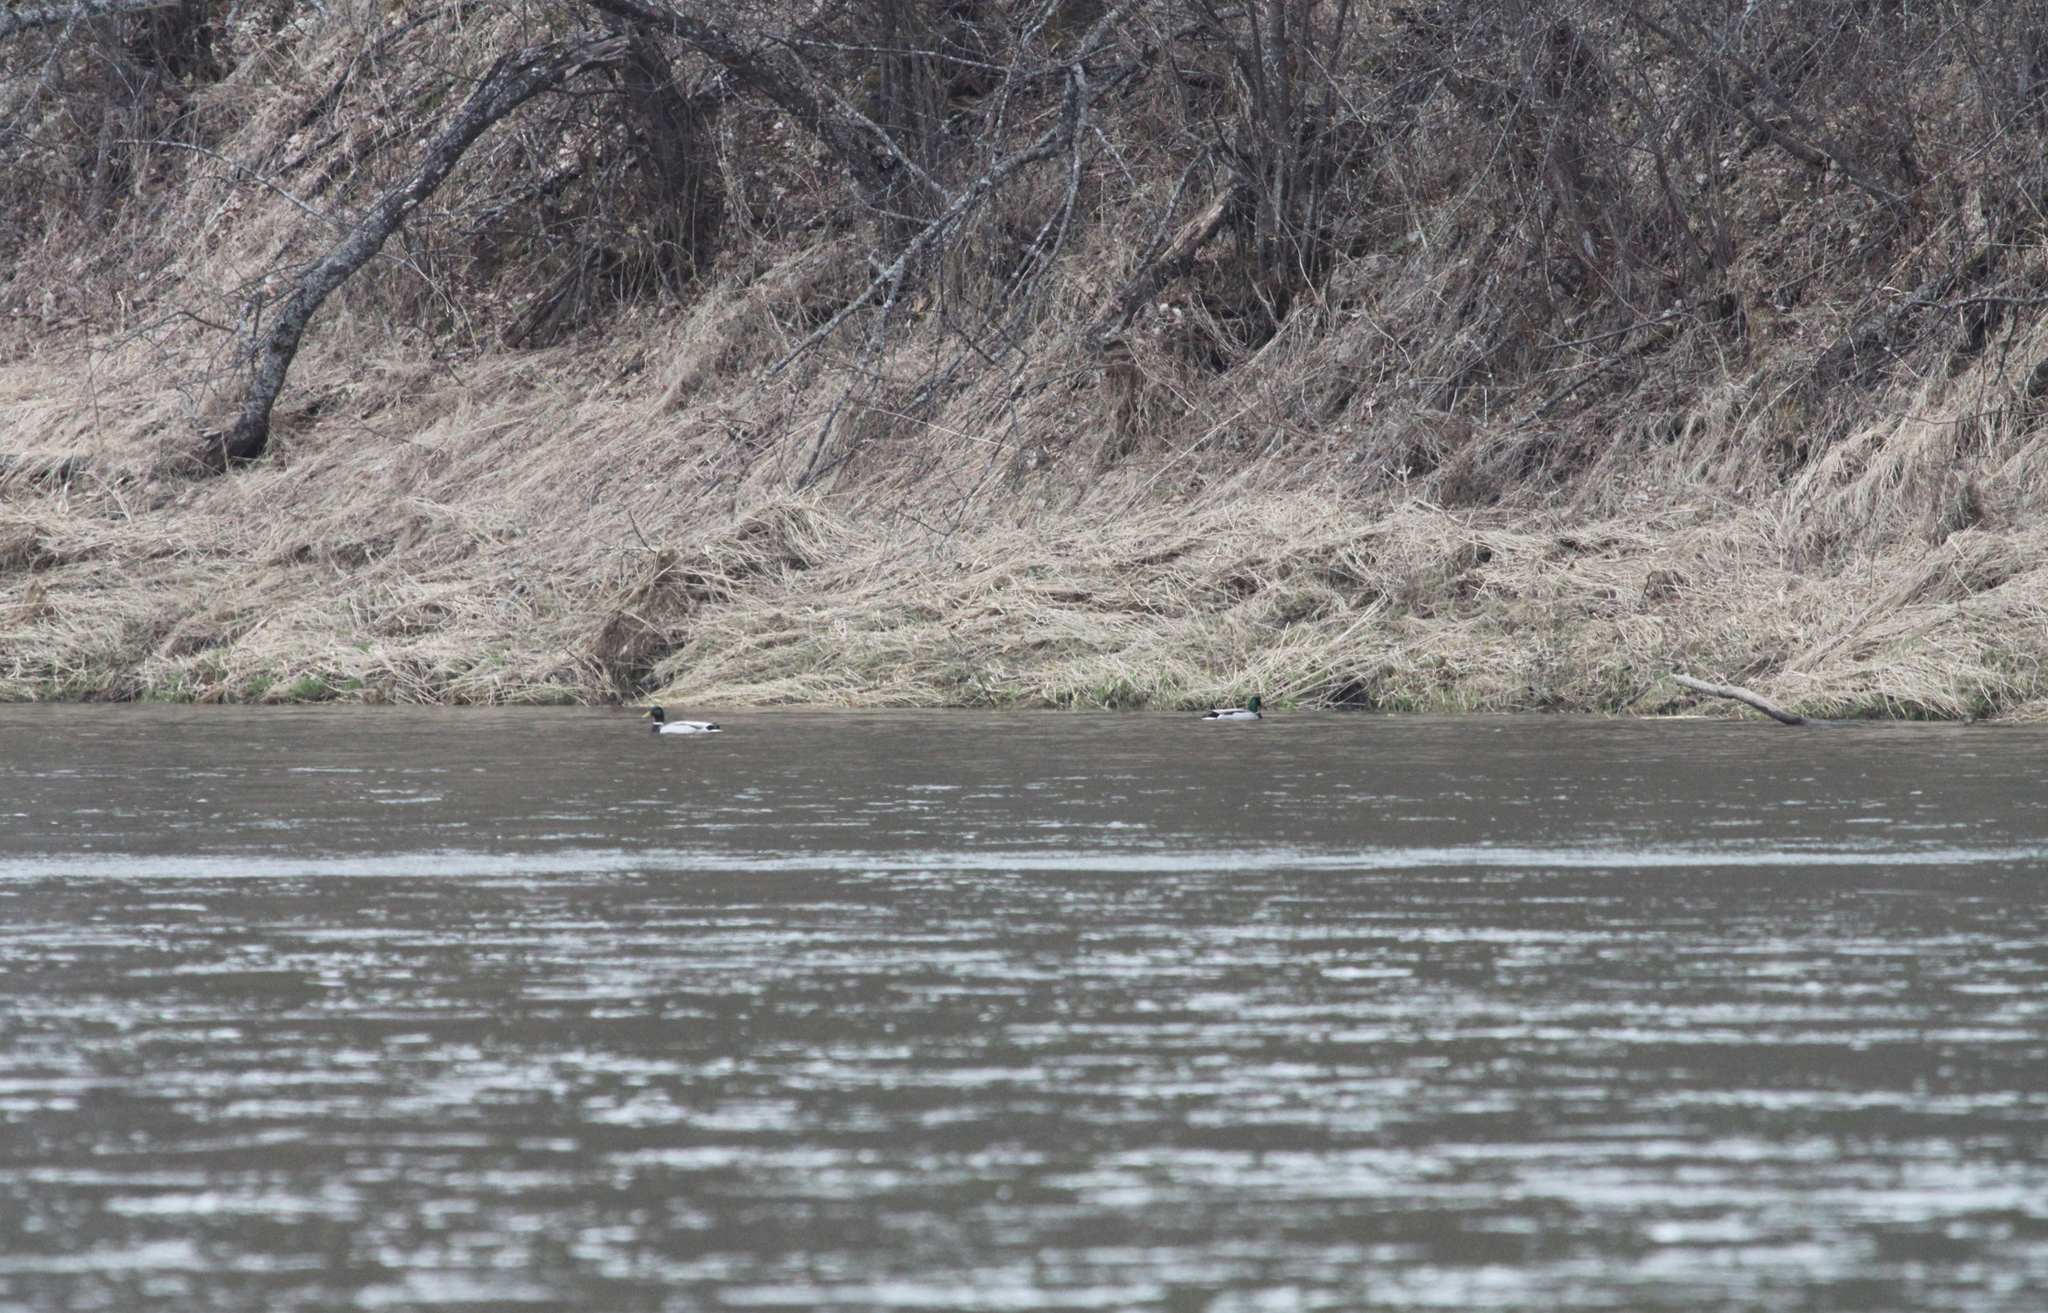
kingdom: Animalia
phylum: Chordata
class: Aves
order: Anseriformes
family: Anatidae
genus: Anas
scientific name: Anas platyrhynchos
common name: Mallard
